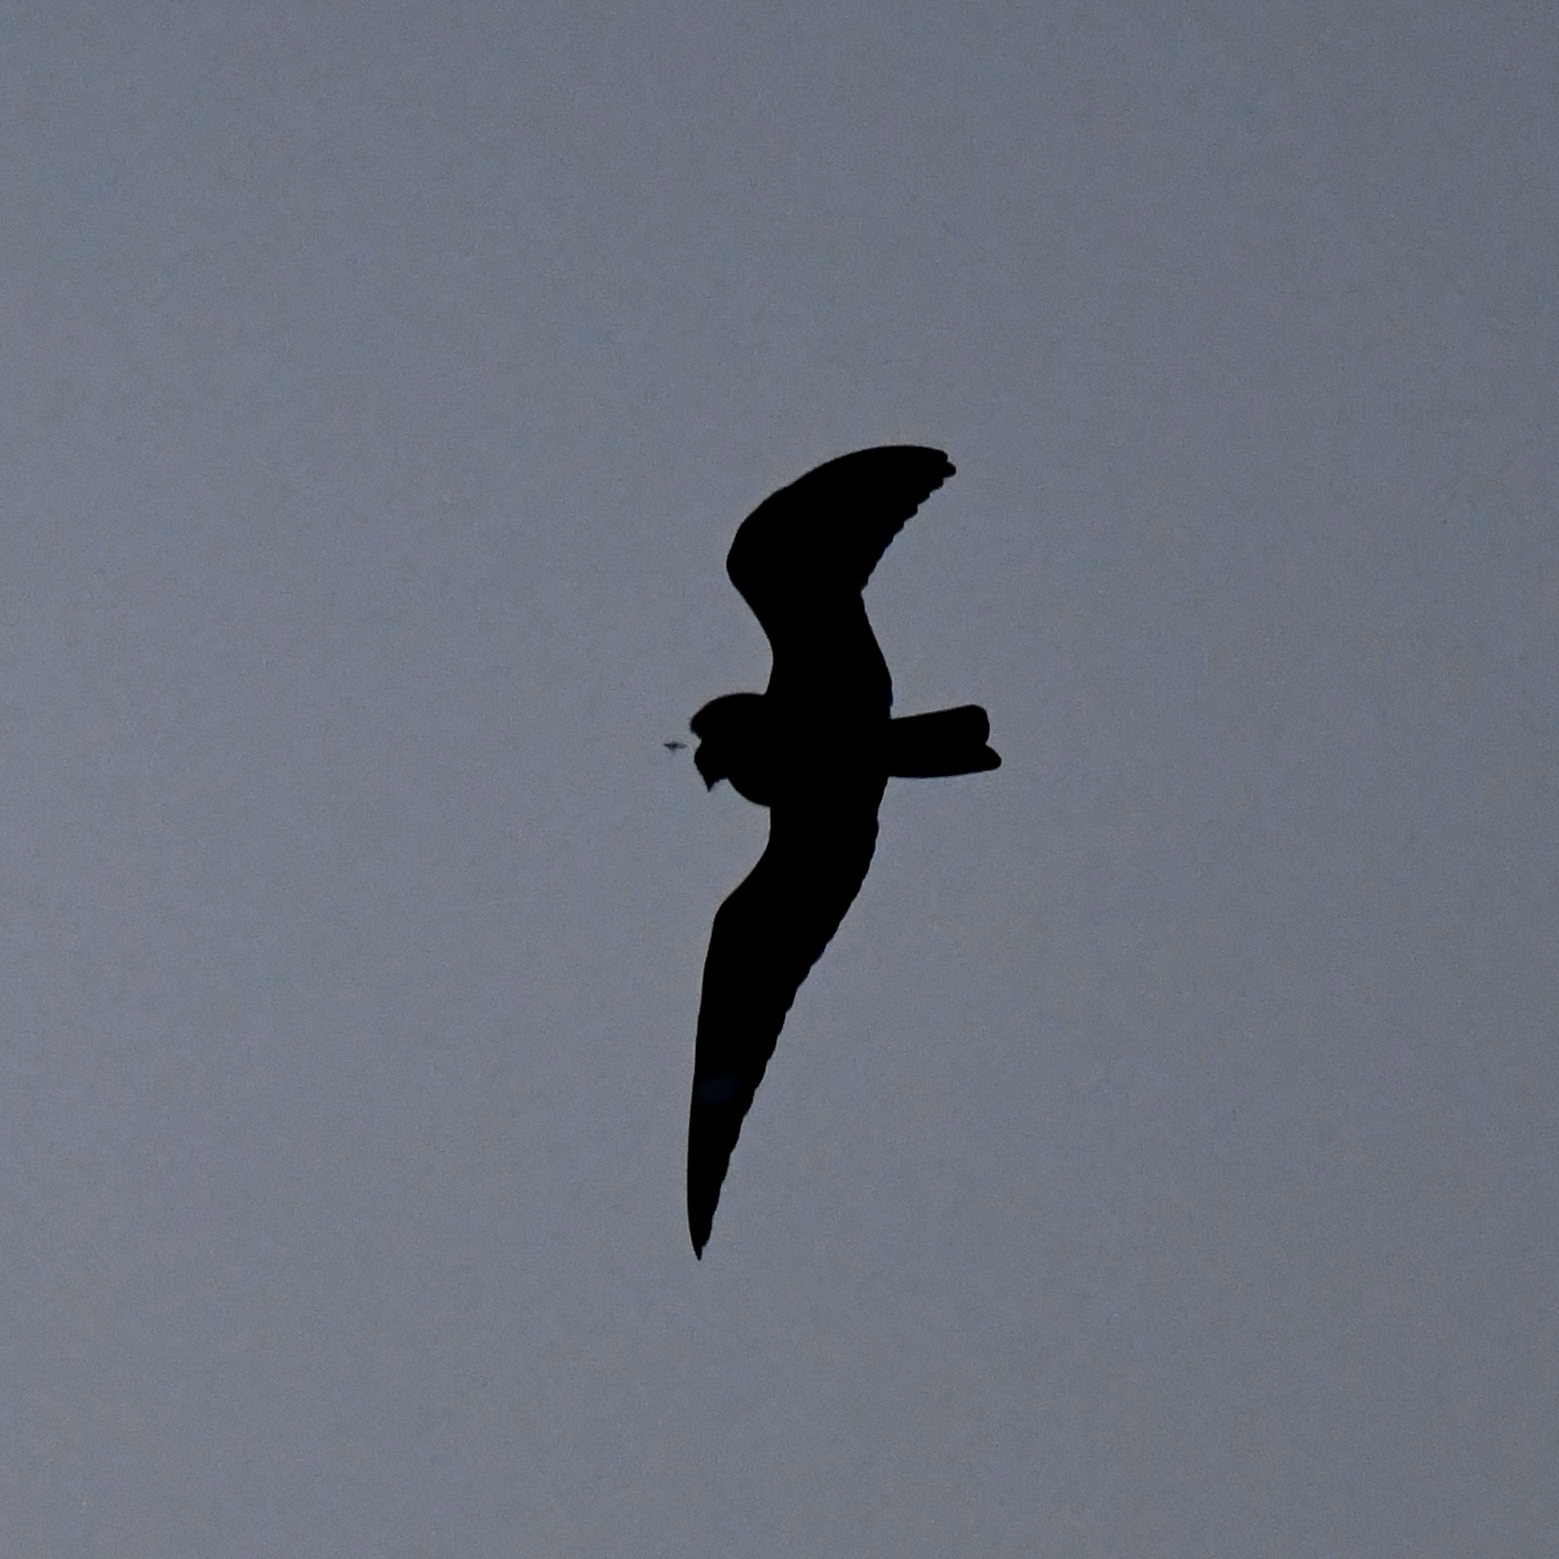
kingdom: Animalia
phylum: Chordata
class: Aves
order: Caprimulgiformes
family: Caprimulgidae
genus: Chordeiles
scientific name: Chordeiles minor
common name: Common nighthawk
